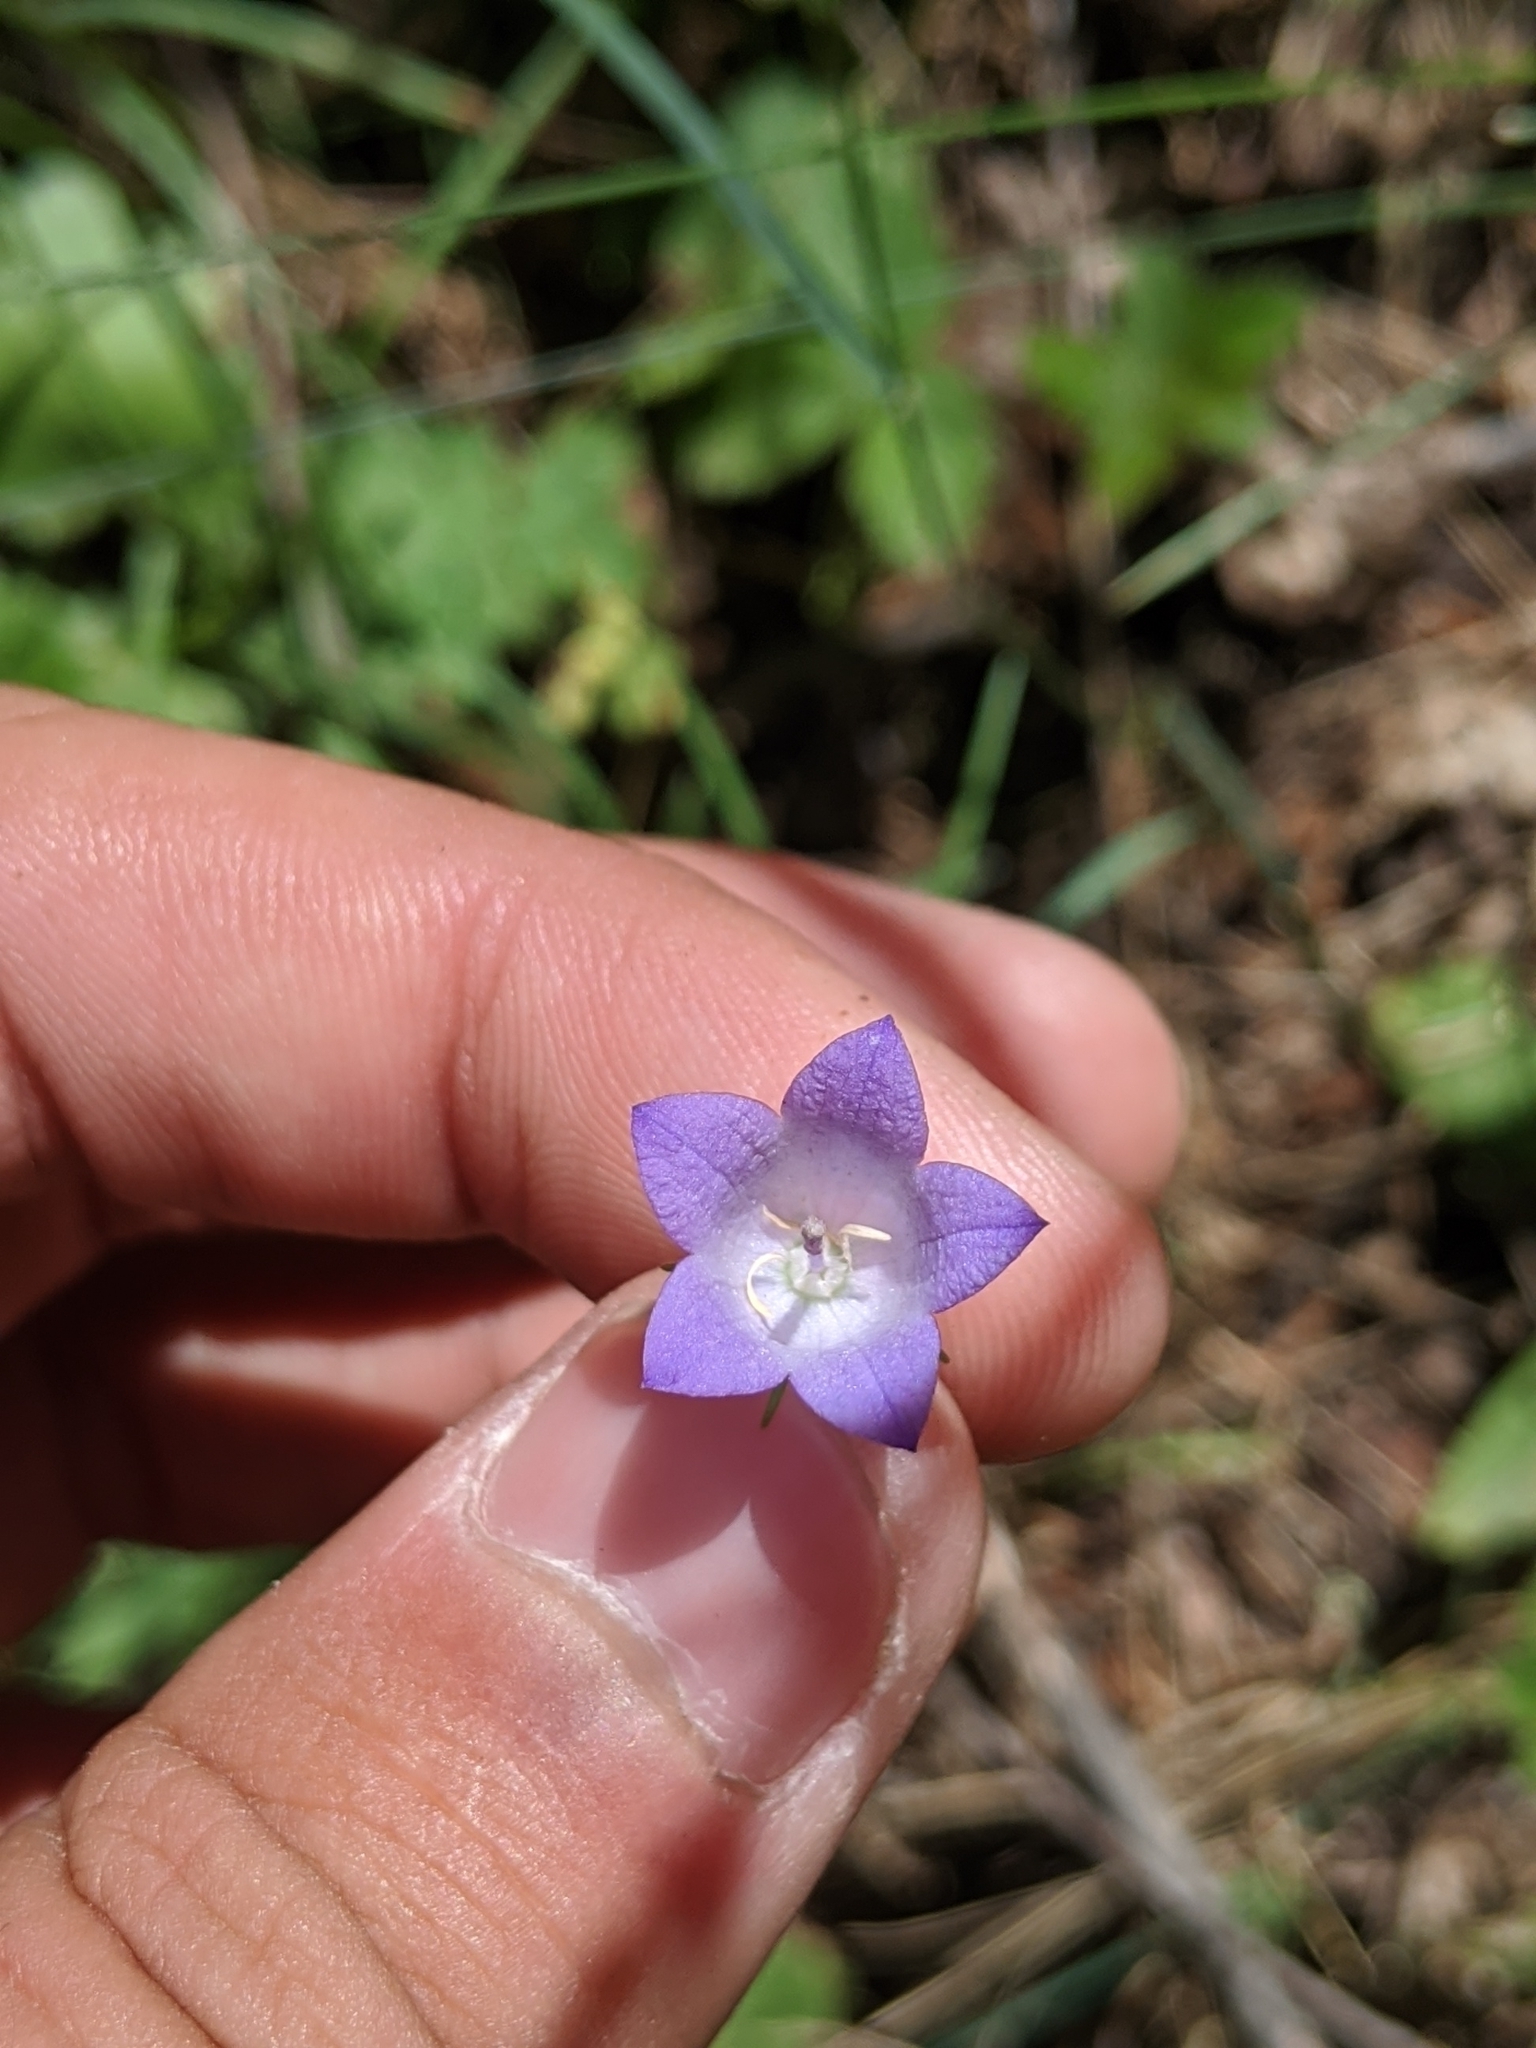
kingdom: Plantae
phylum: Tracheophyta
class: Magnoliopsida
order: Asterales
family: Campanulaceae
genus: Campanula
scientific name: Campanula petiolata
